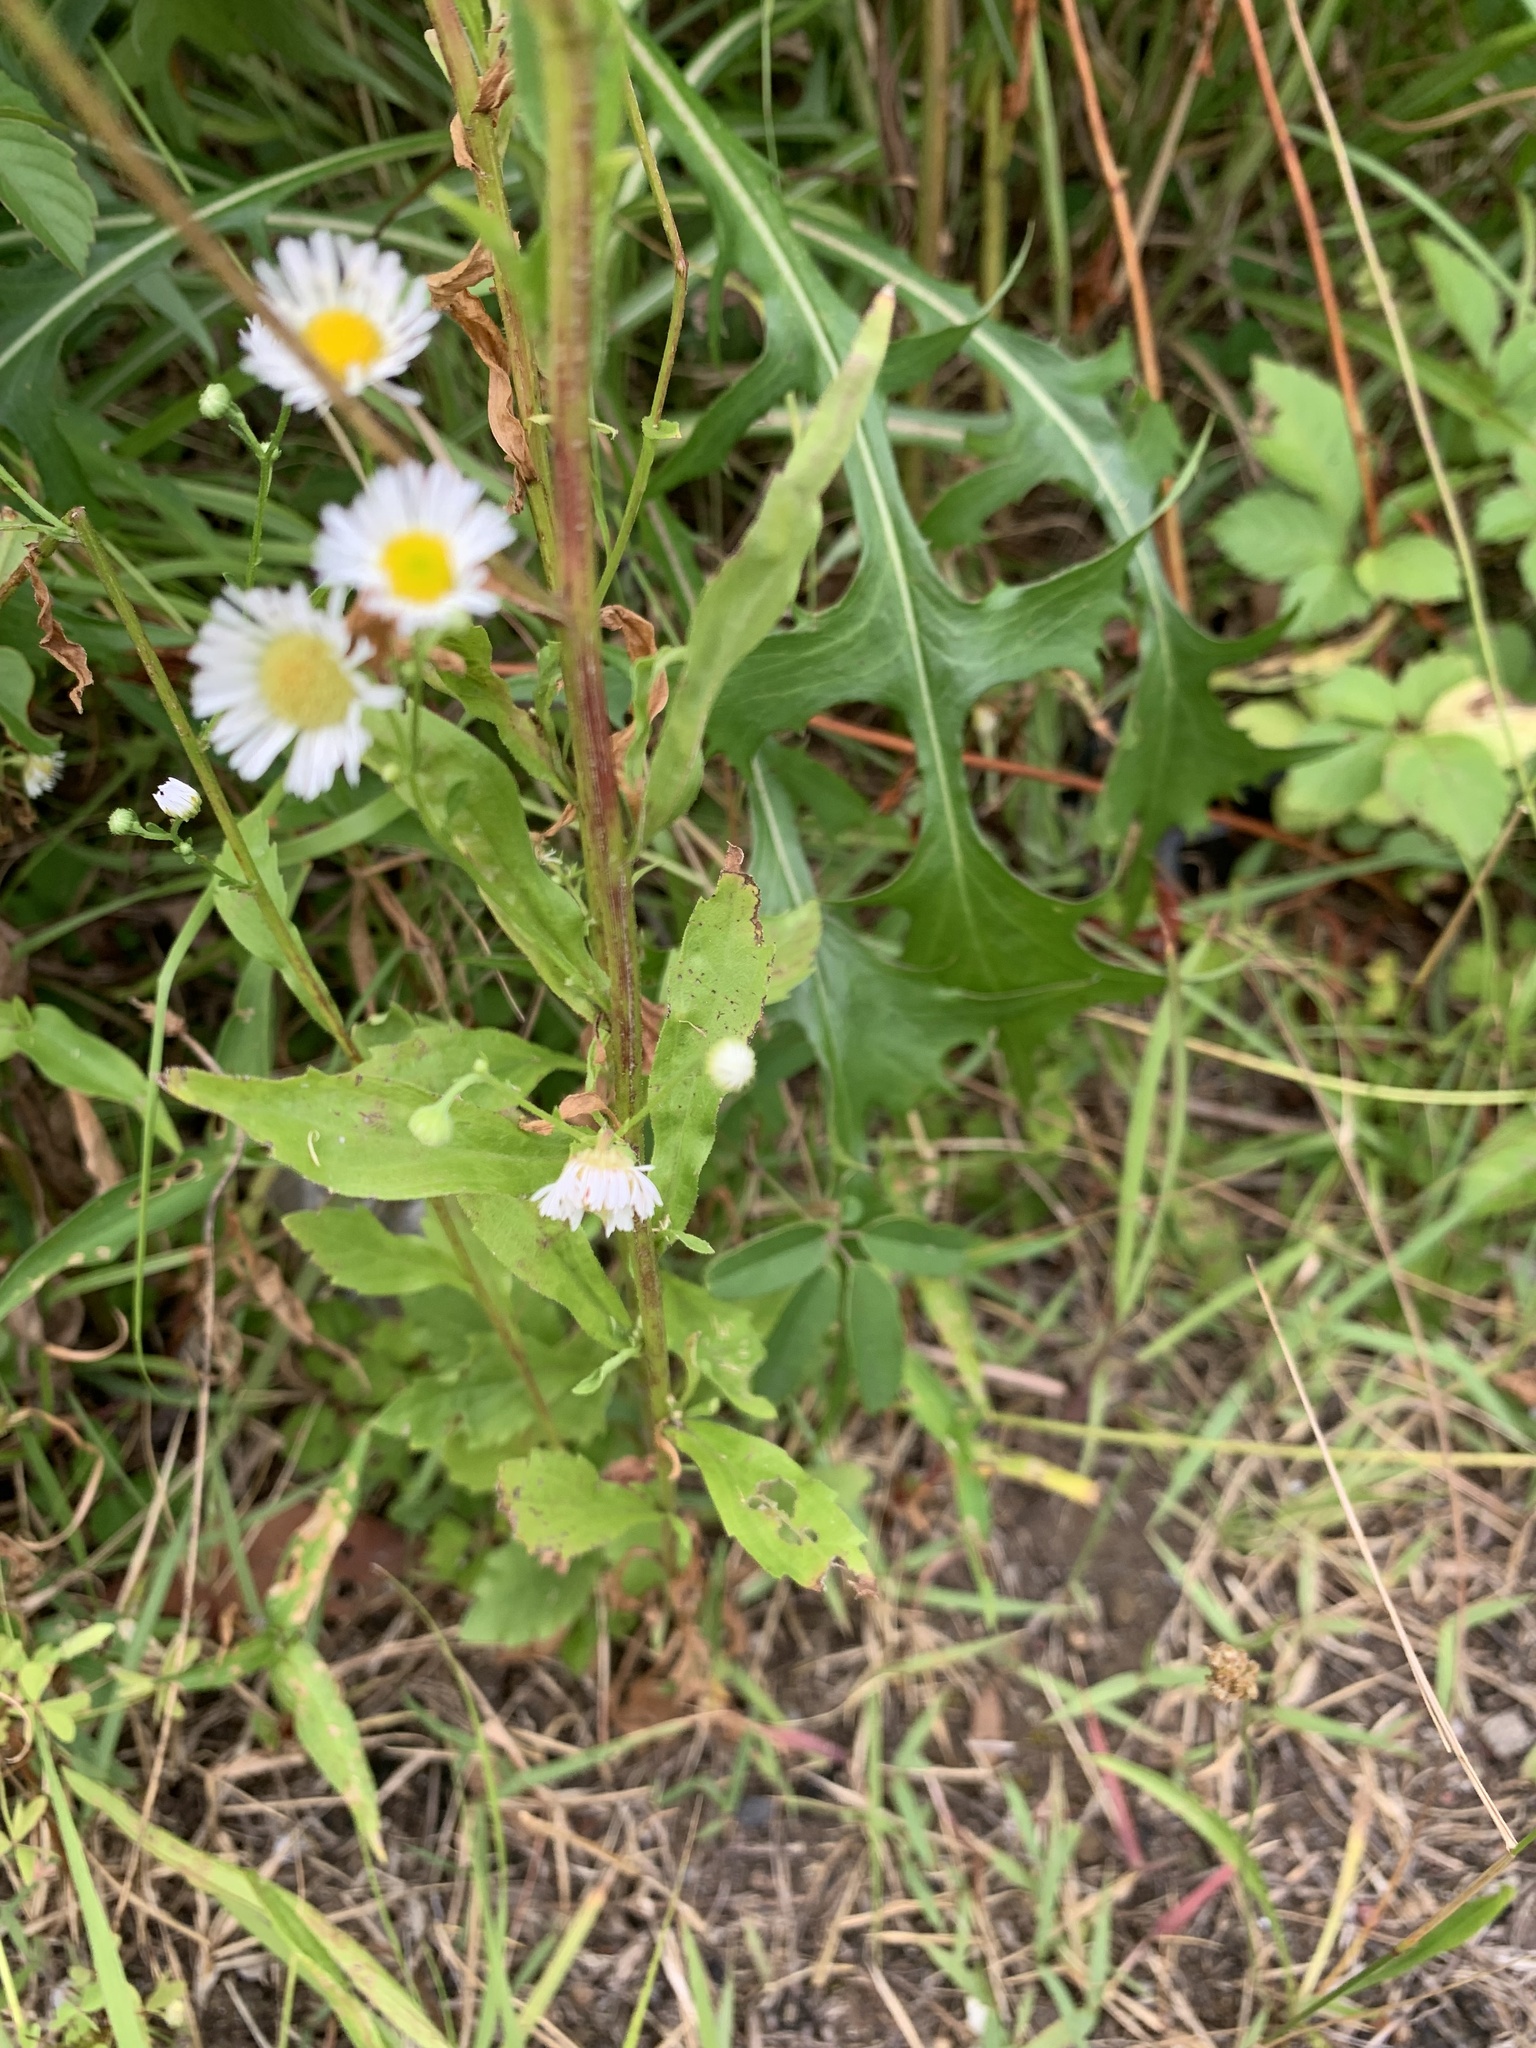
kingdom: Plantae
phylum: Tracheophyta
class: Magnoliopsida
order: Asterales
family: Asteraceae
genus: Erigeron
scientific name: Erigeron annuus
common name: Tall fleabane
